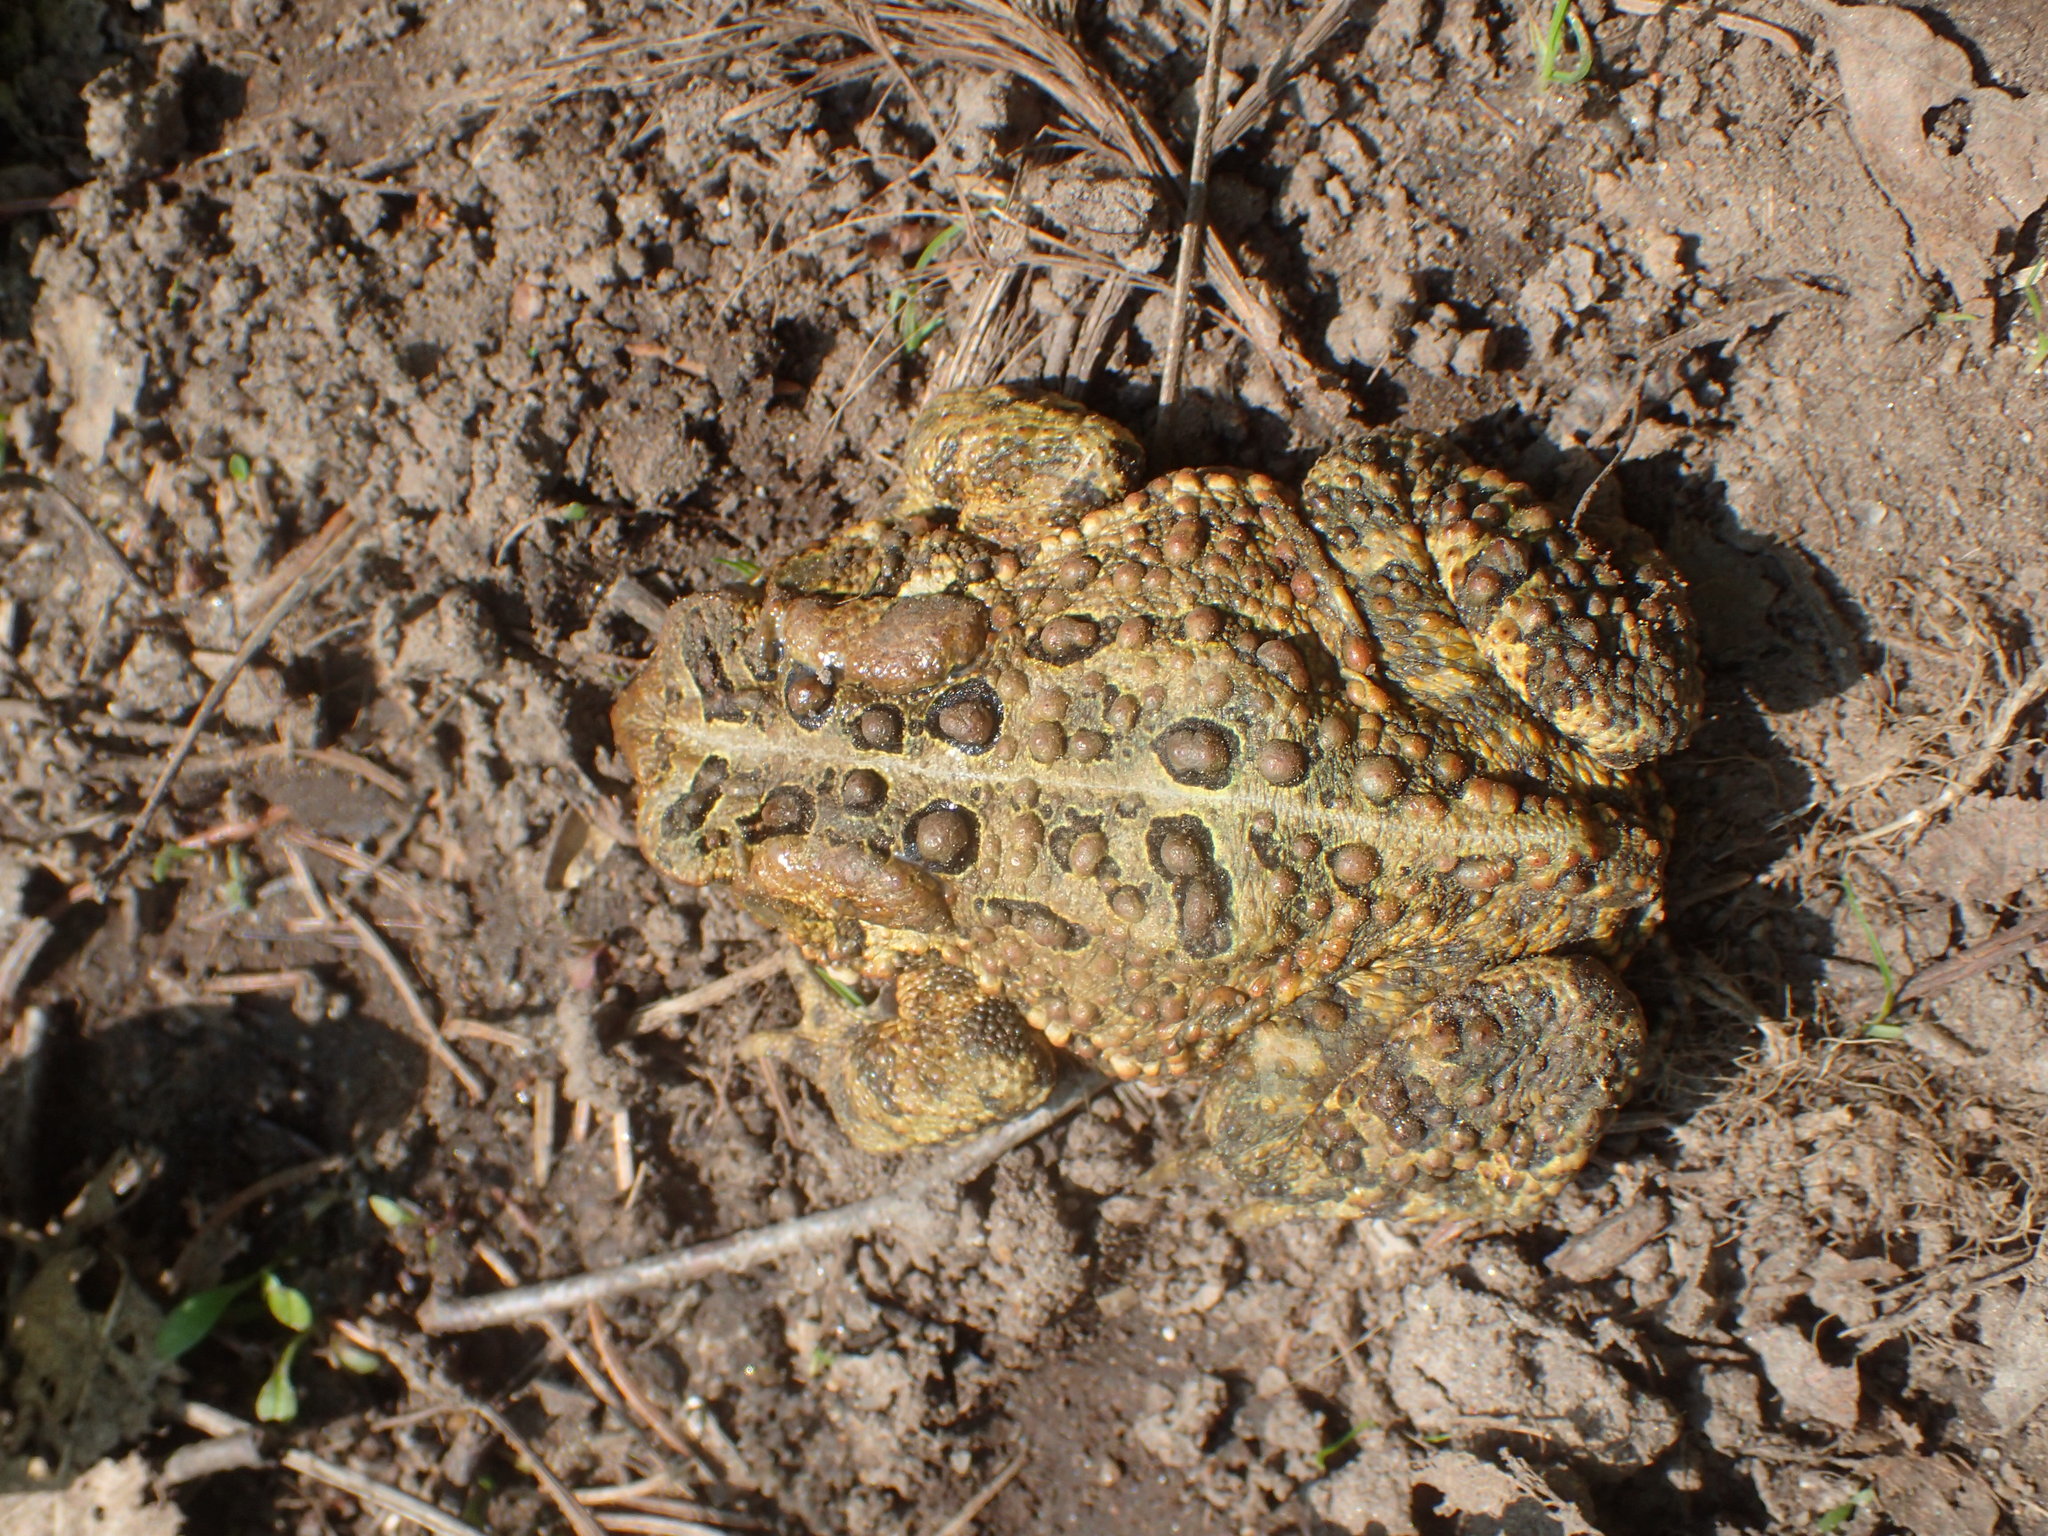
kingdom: Animalia
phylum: Chordata
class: Amphibia
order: Anura
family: Bufonidae
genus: Anaxyrus
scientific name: Anaxyrus americanus
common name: American toad
